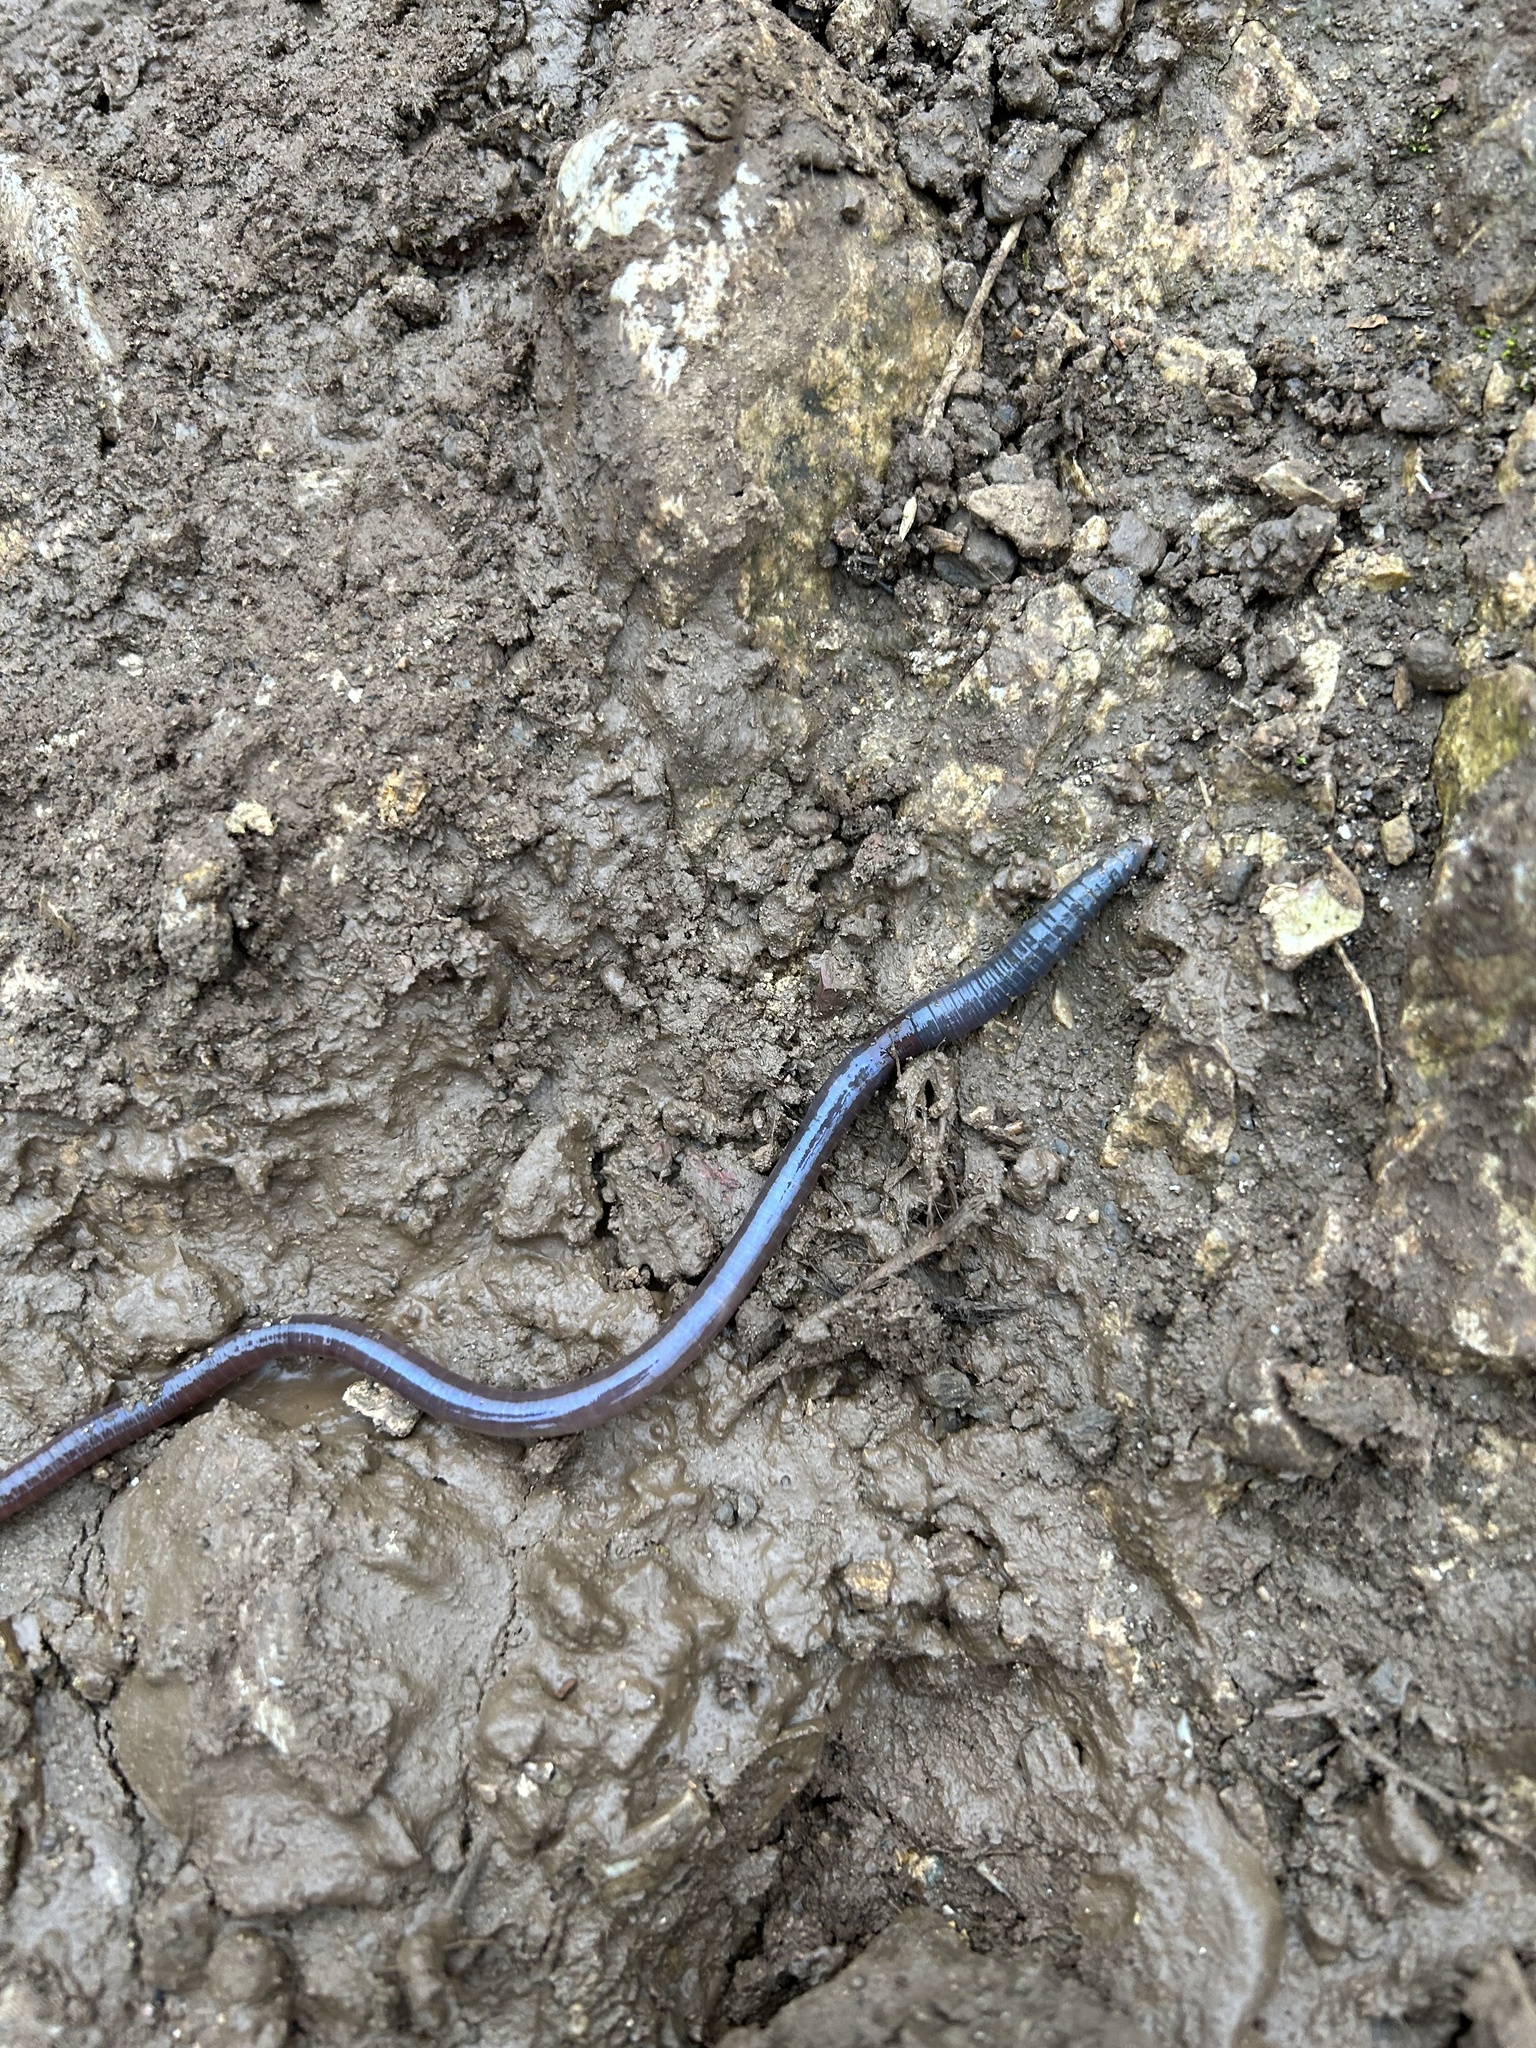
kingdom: Animalia
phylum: Annelida
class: Clitellata
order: Crassiclitellata
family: Megascolecidae
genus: Pheretima
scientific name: Pheretima
